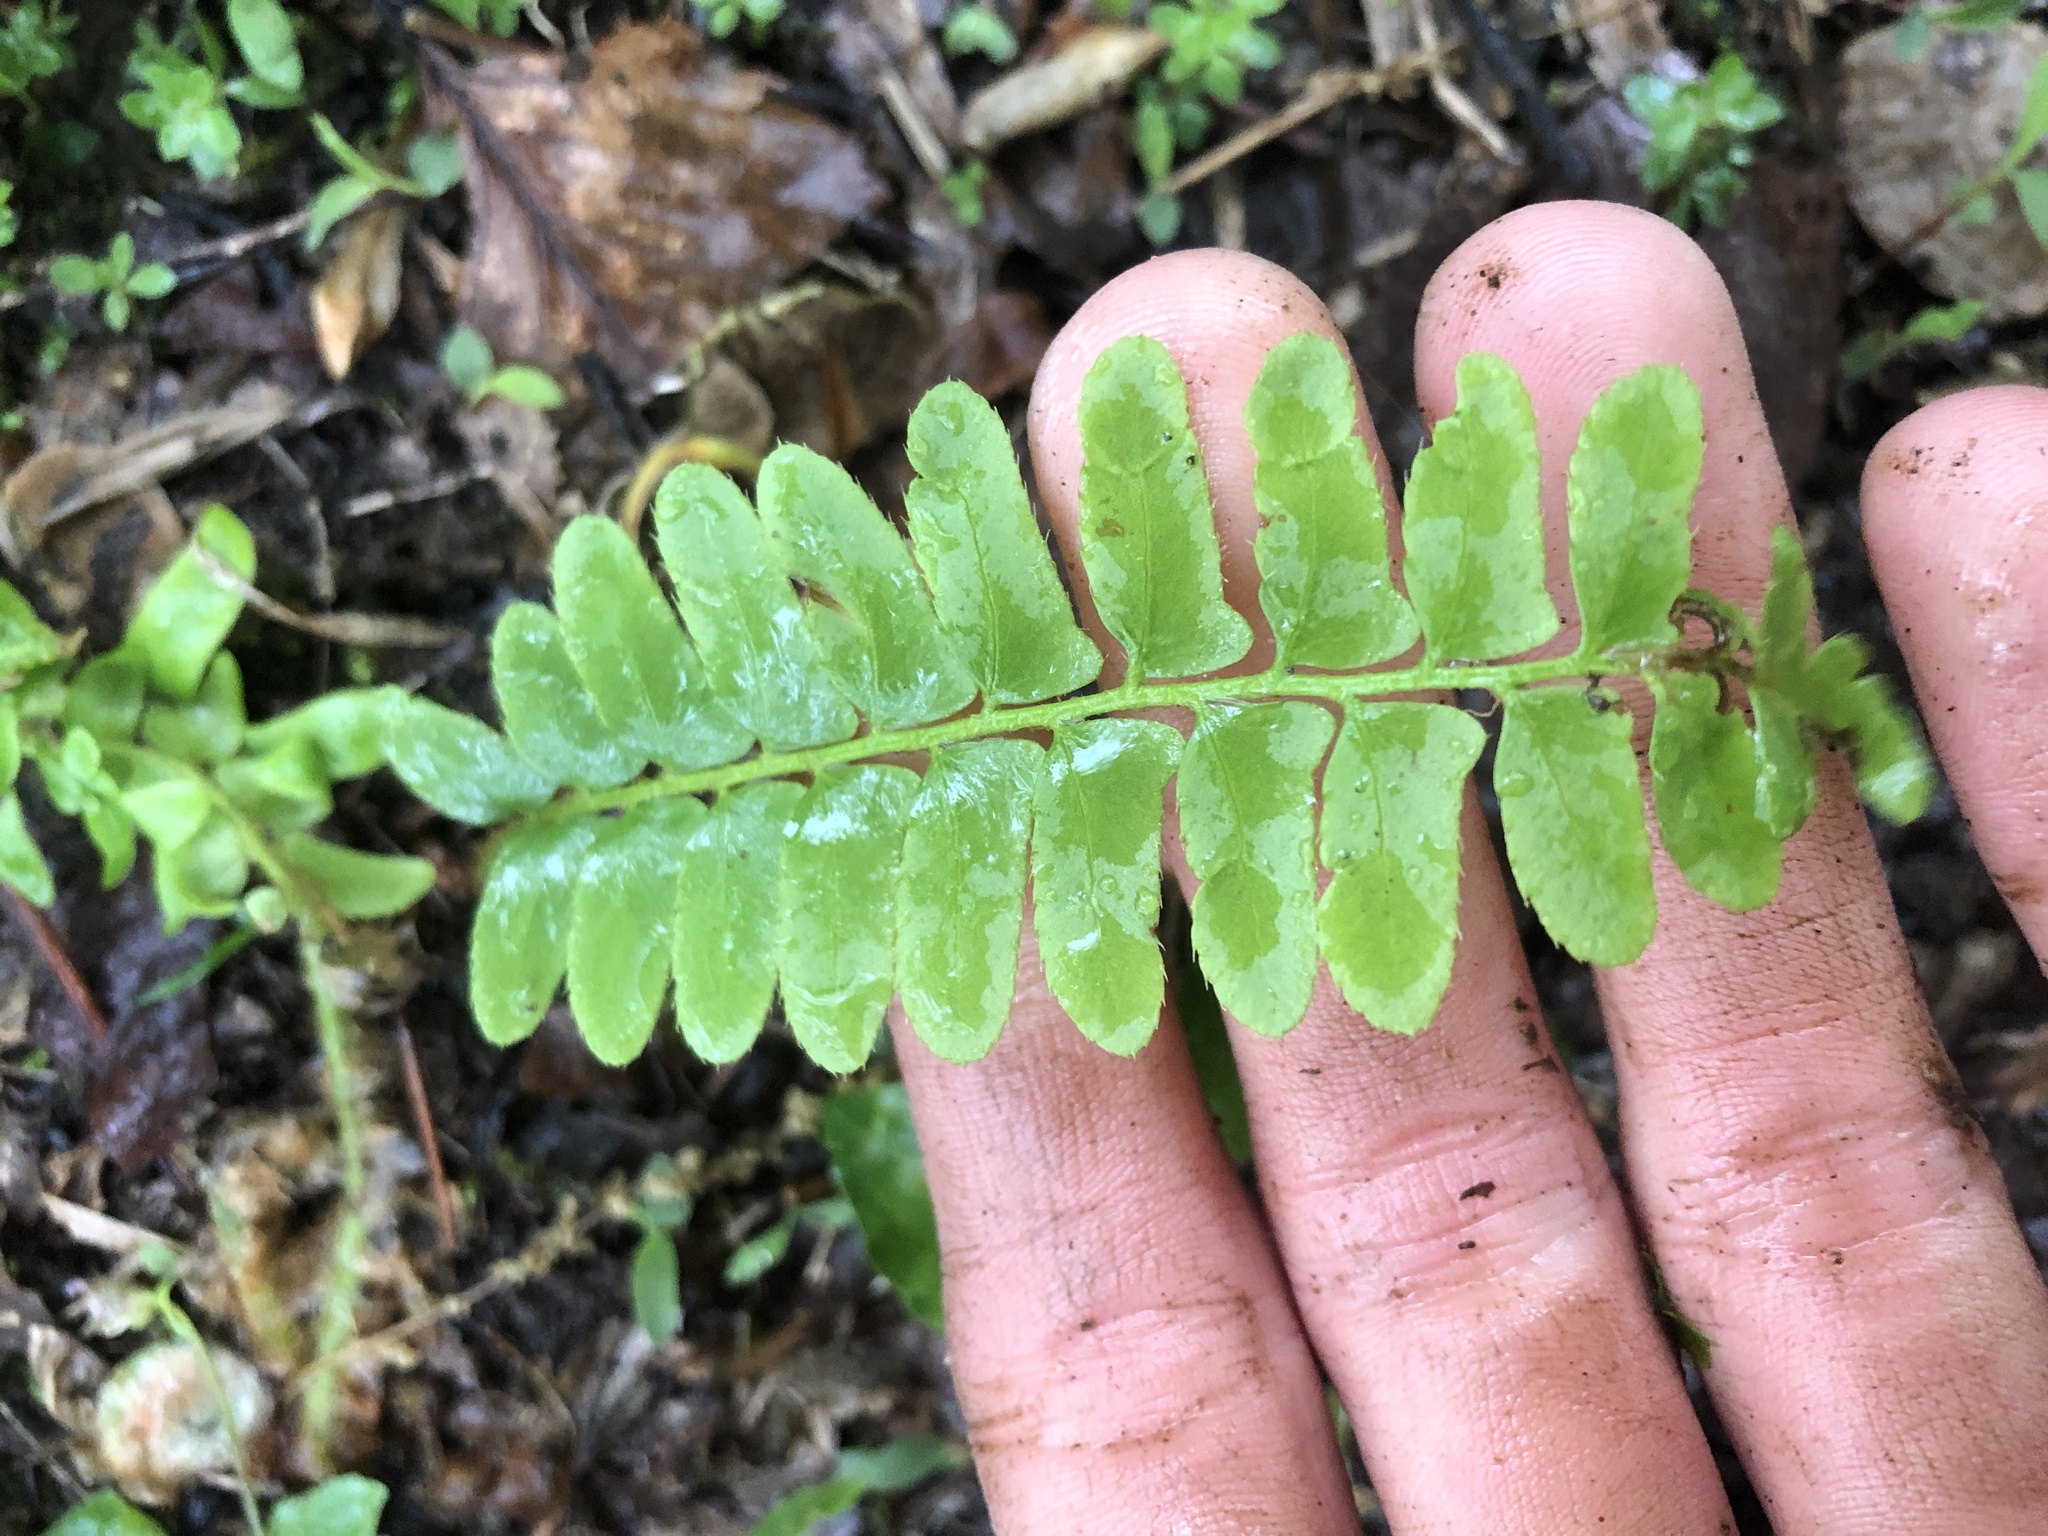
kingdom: Plantae
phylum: Tracheophyta
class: Polypodiopsida
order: Polypodiales
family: Dryopteridaceae
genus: Polystichum
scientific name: Polystichum acrostichoides
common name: Christmas fern
